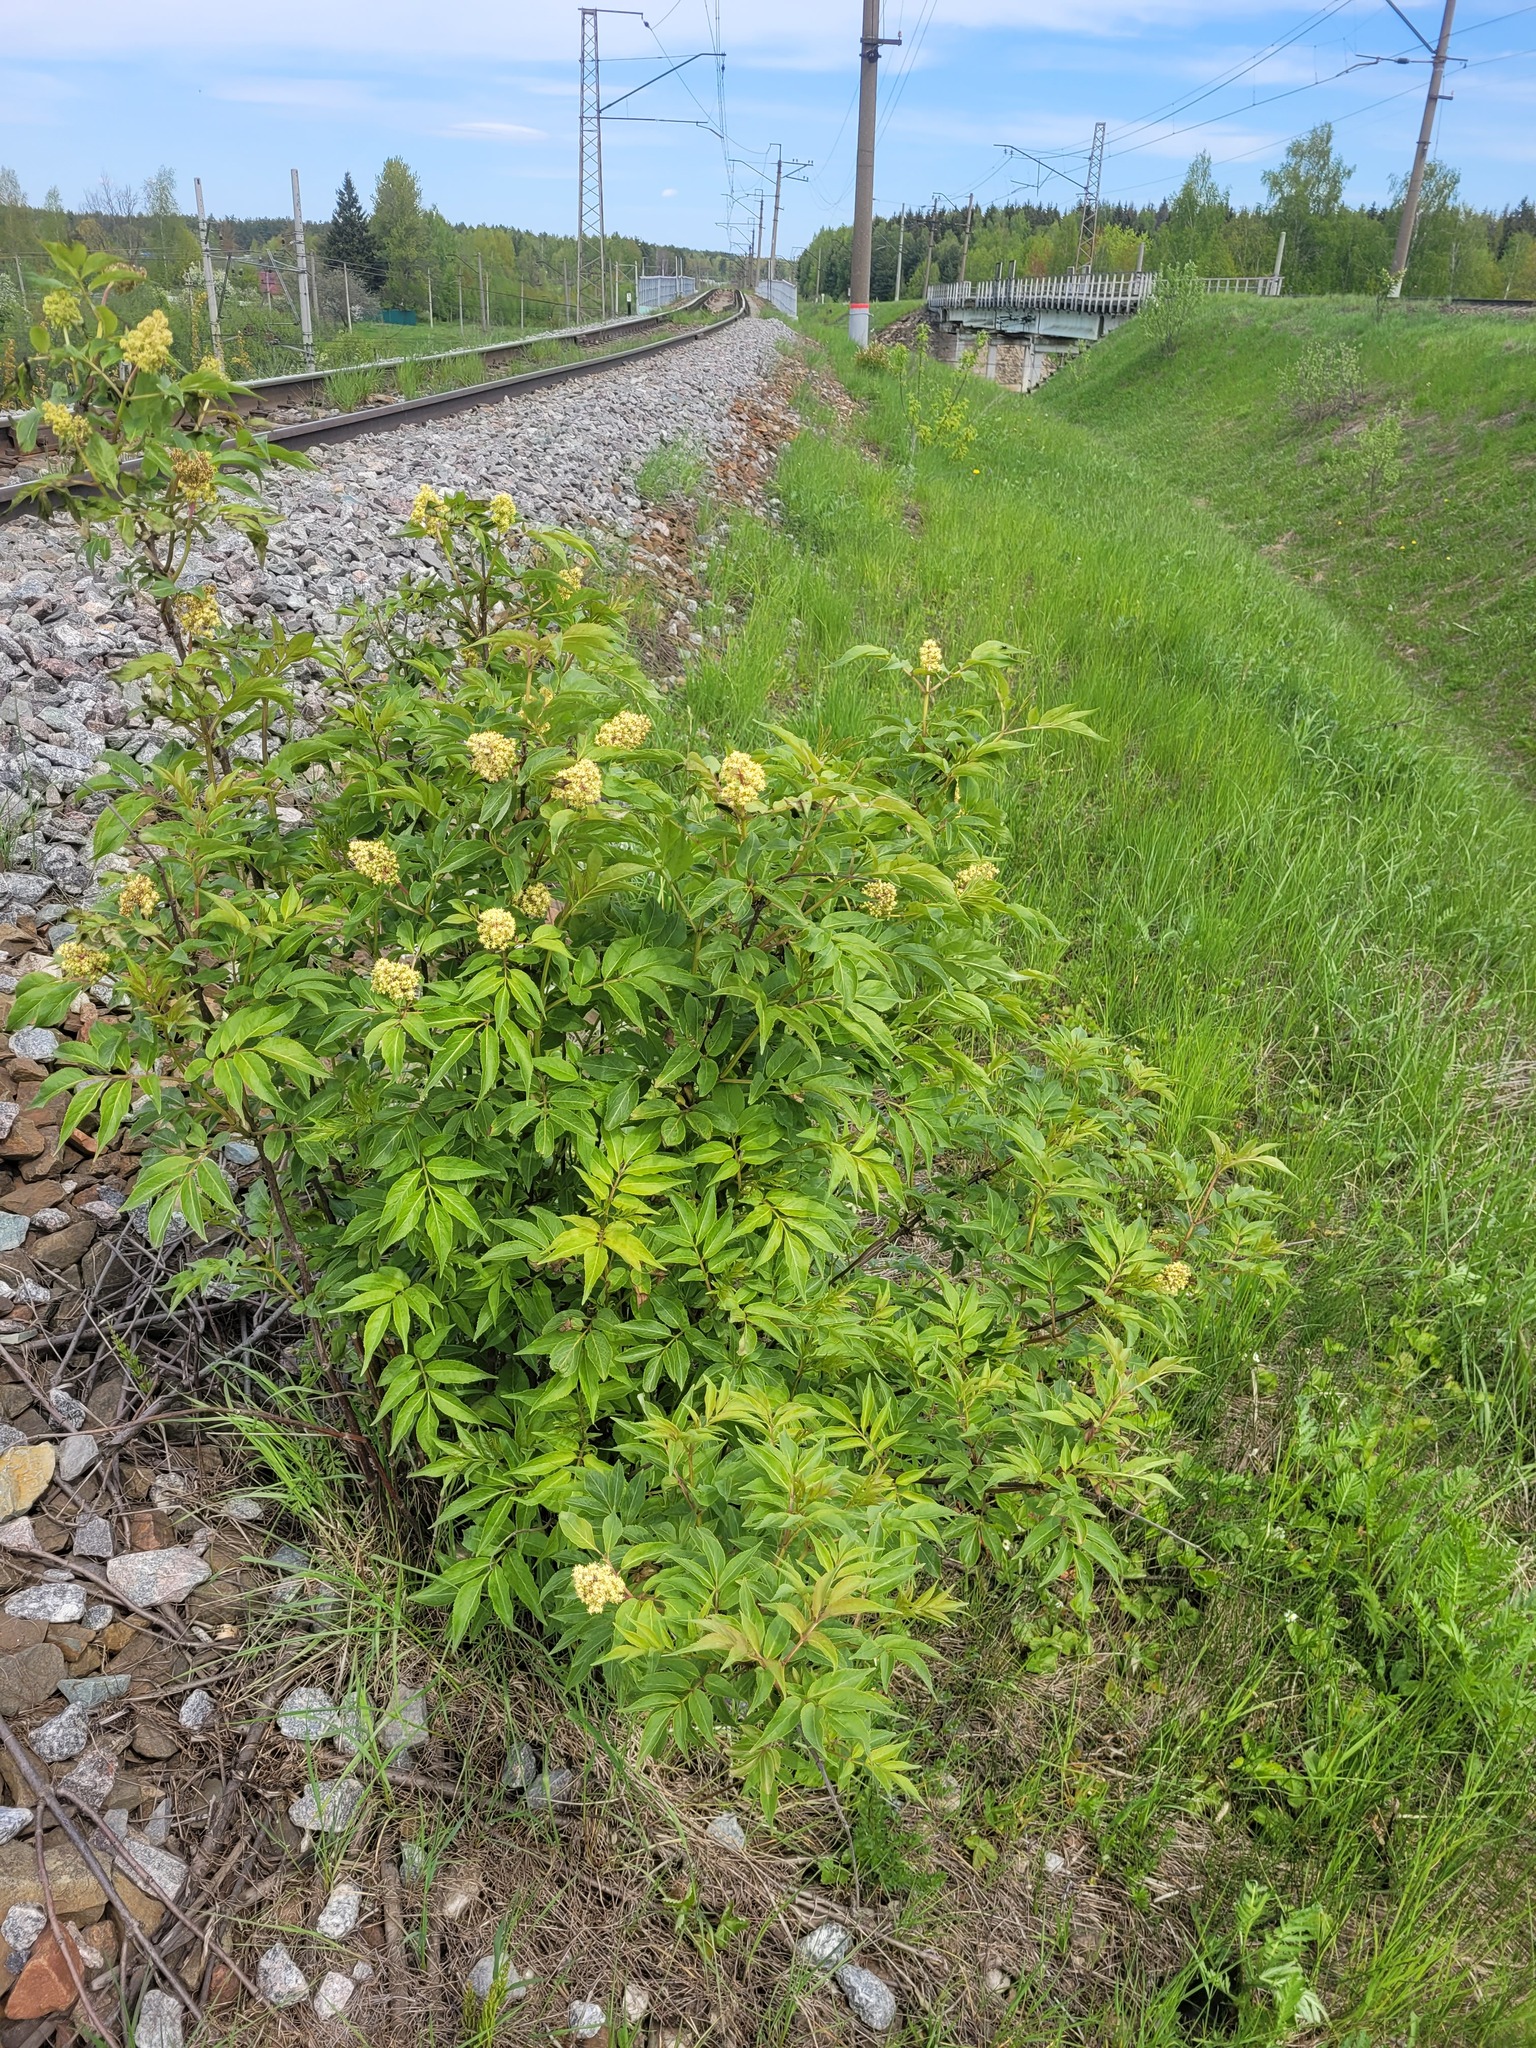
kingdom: Plantae
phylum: Tracheophyta
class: Magnoliopsida
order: Dipsacales
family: Viburnaceae
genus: Sambucus
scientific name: Sambucus racemosa
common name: Red-berried elder
